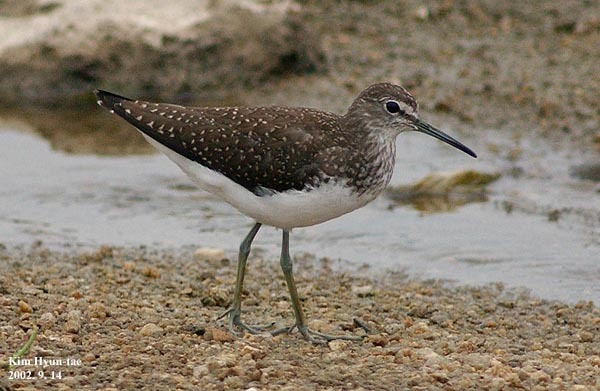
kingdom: Animalia
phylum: Chordata
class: Aves
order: Charadriiformes
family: Scolopacidae
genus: Tringa
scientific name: Tringa ochropus
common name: Green sandpiper
